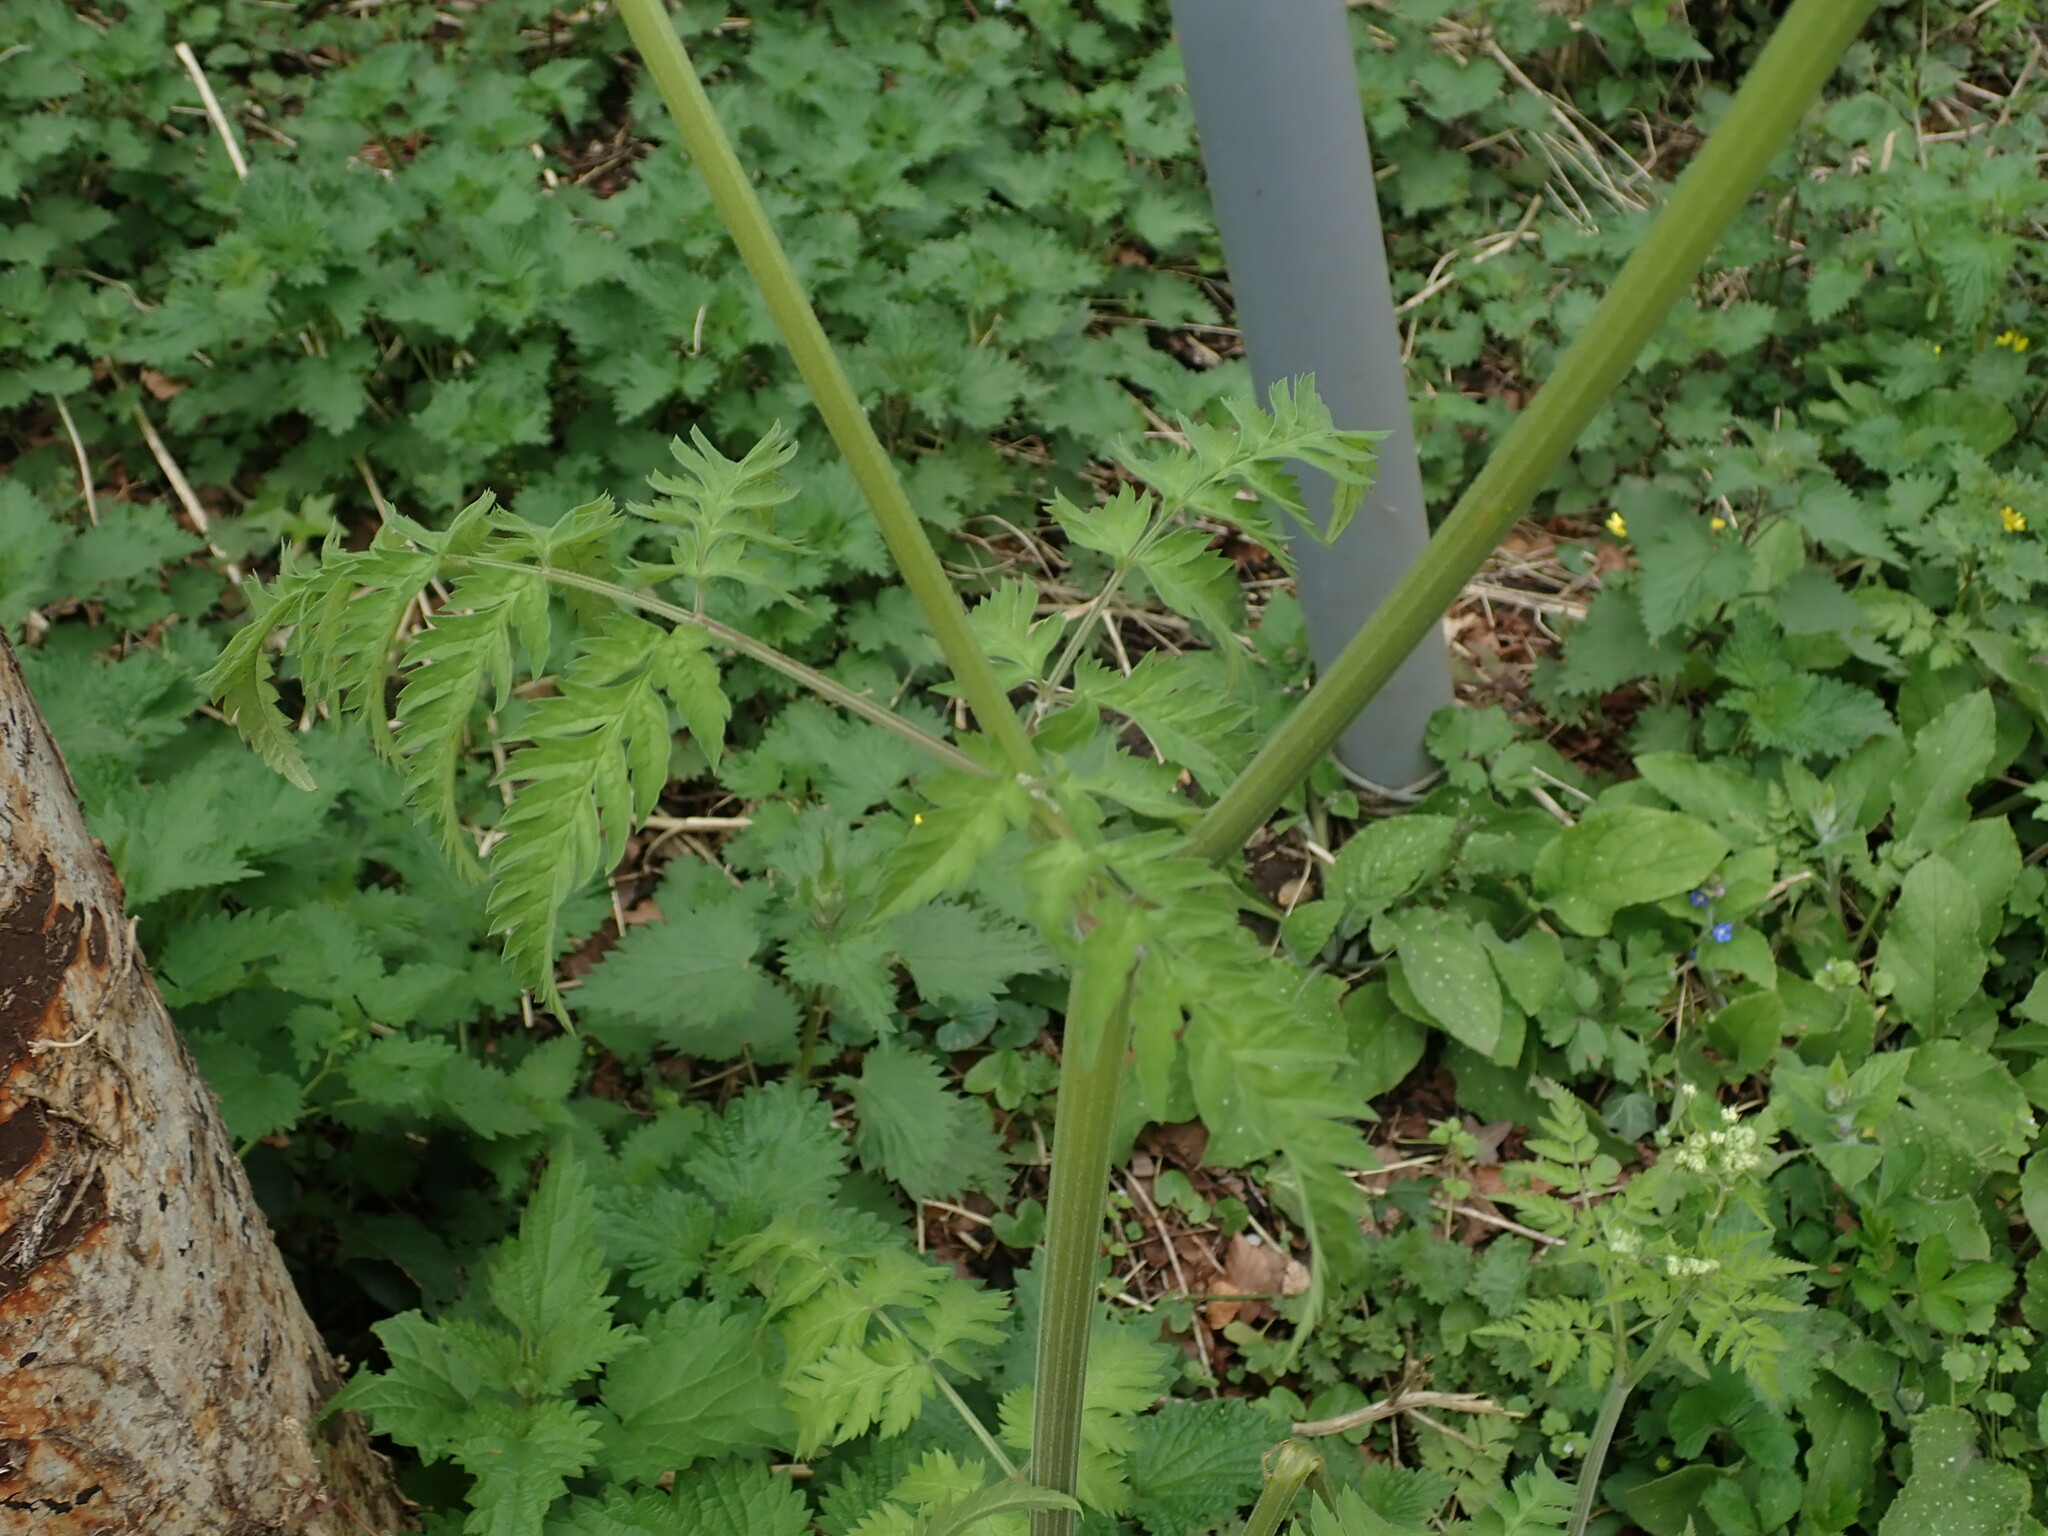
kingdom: Plantae
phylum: Tracheophyta
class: Magnoliopsida
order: Apiales
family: Apiaceae
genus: Anthriscus
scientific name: Anthriscus sylvestris
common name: Cow parsley
